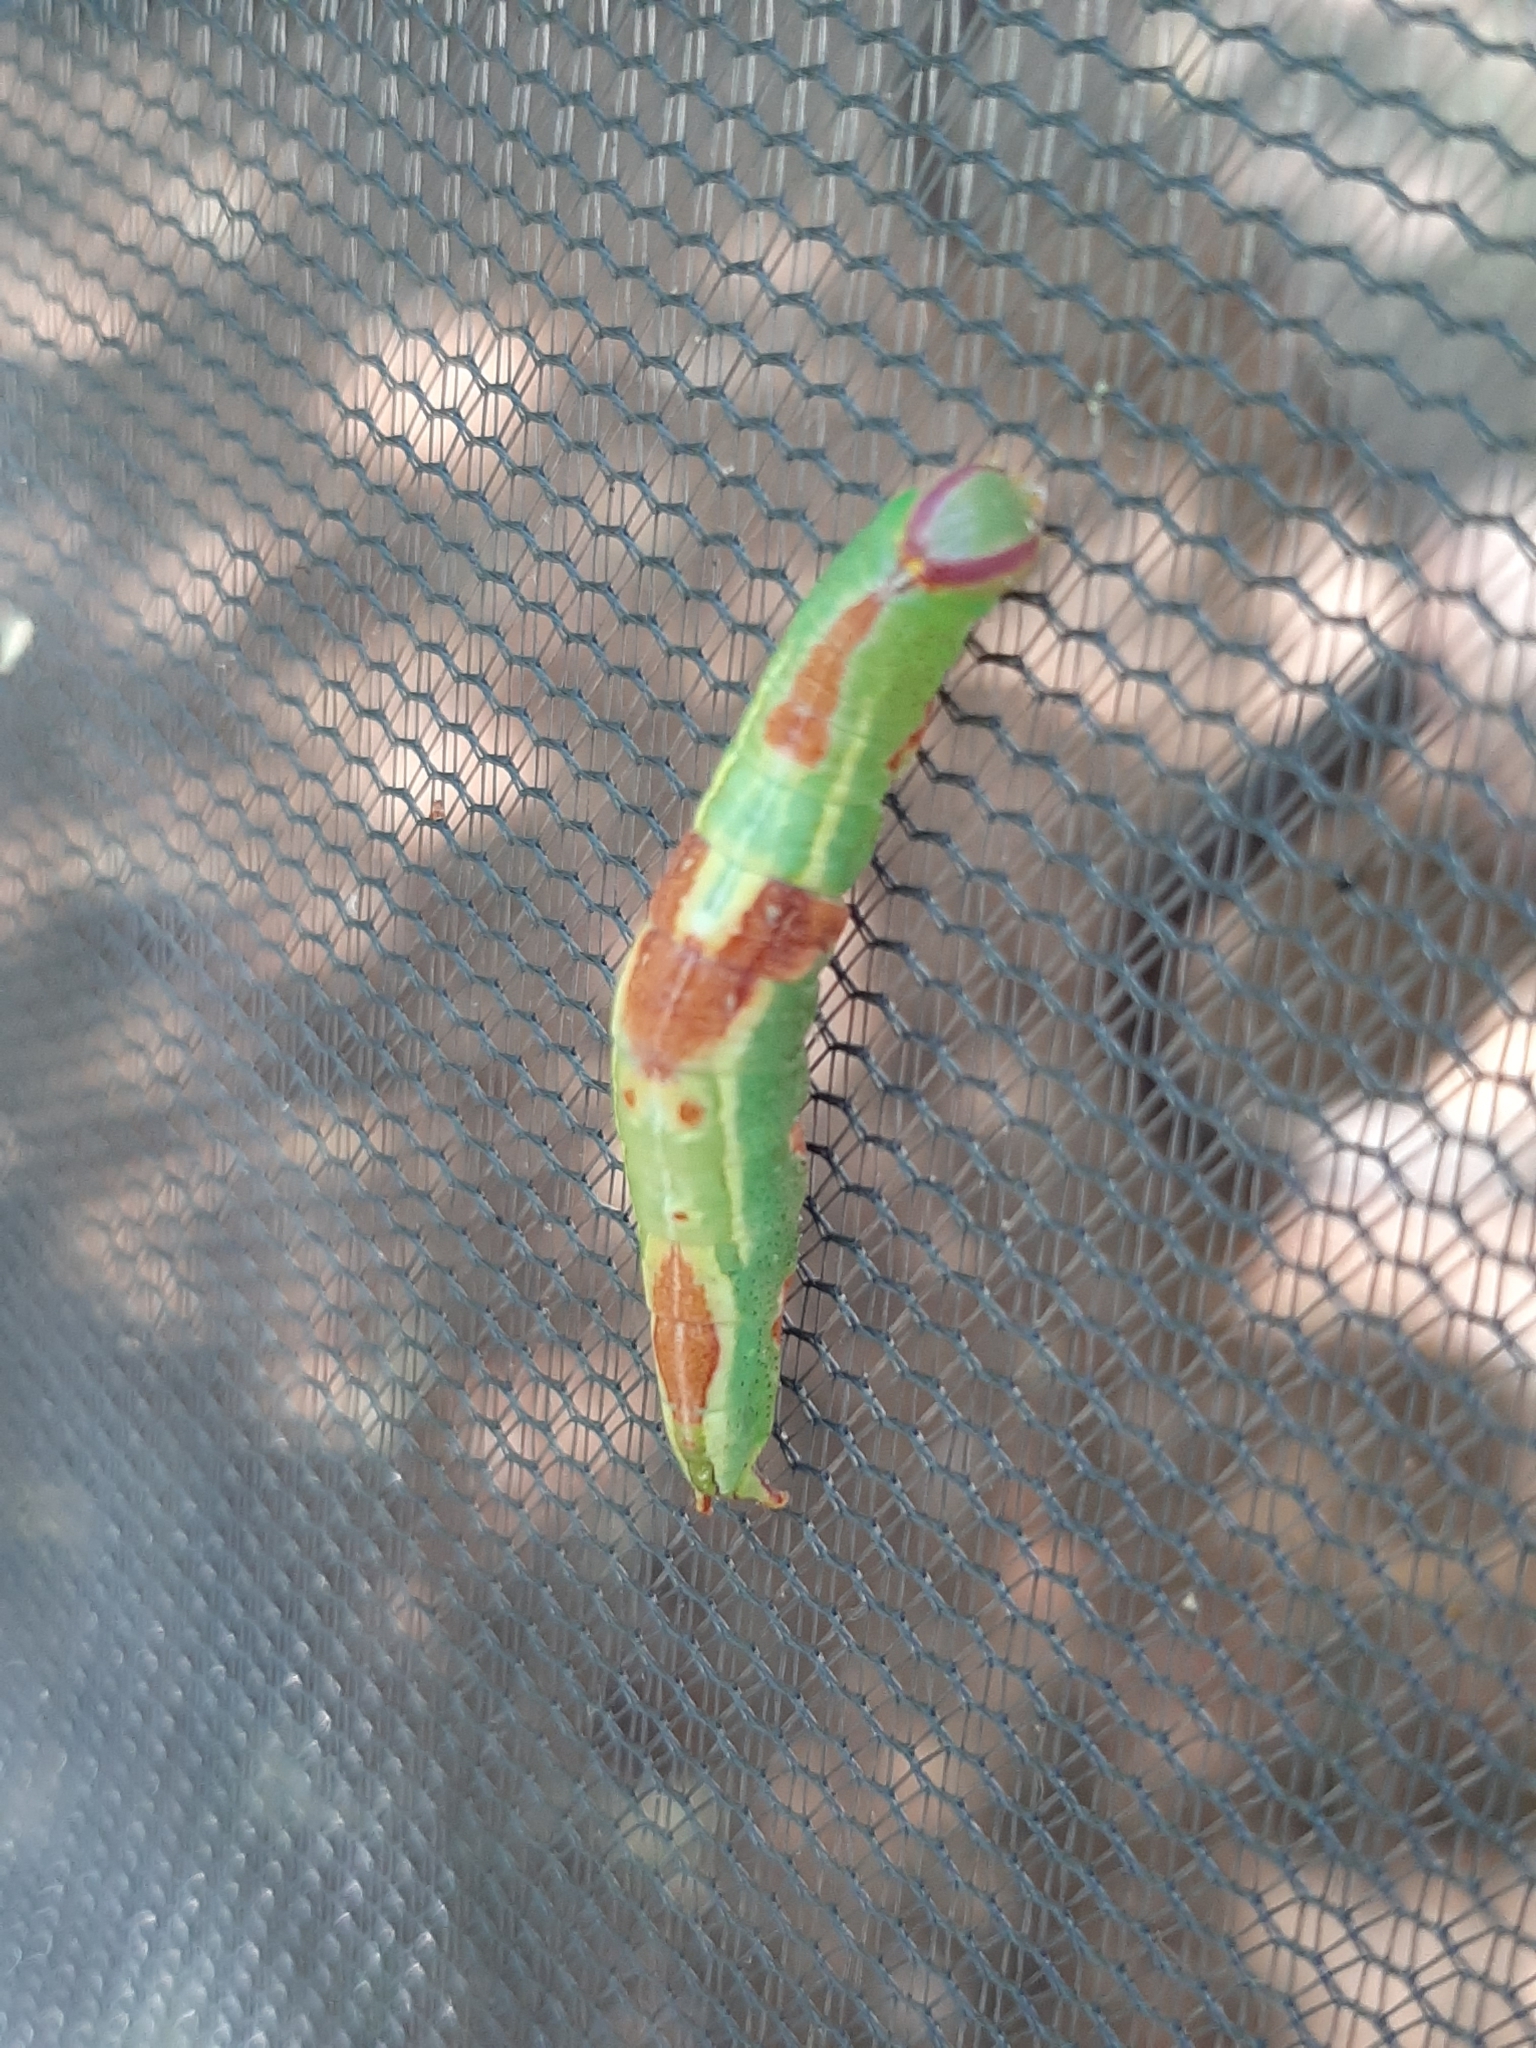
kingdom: Animalia
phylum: Arthropoda
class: Insecta
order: Lepidoptera
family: Notodontidae
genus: Disphragis
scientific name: Disphragis Cecrita guttivitta
